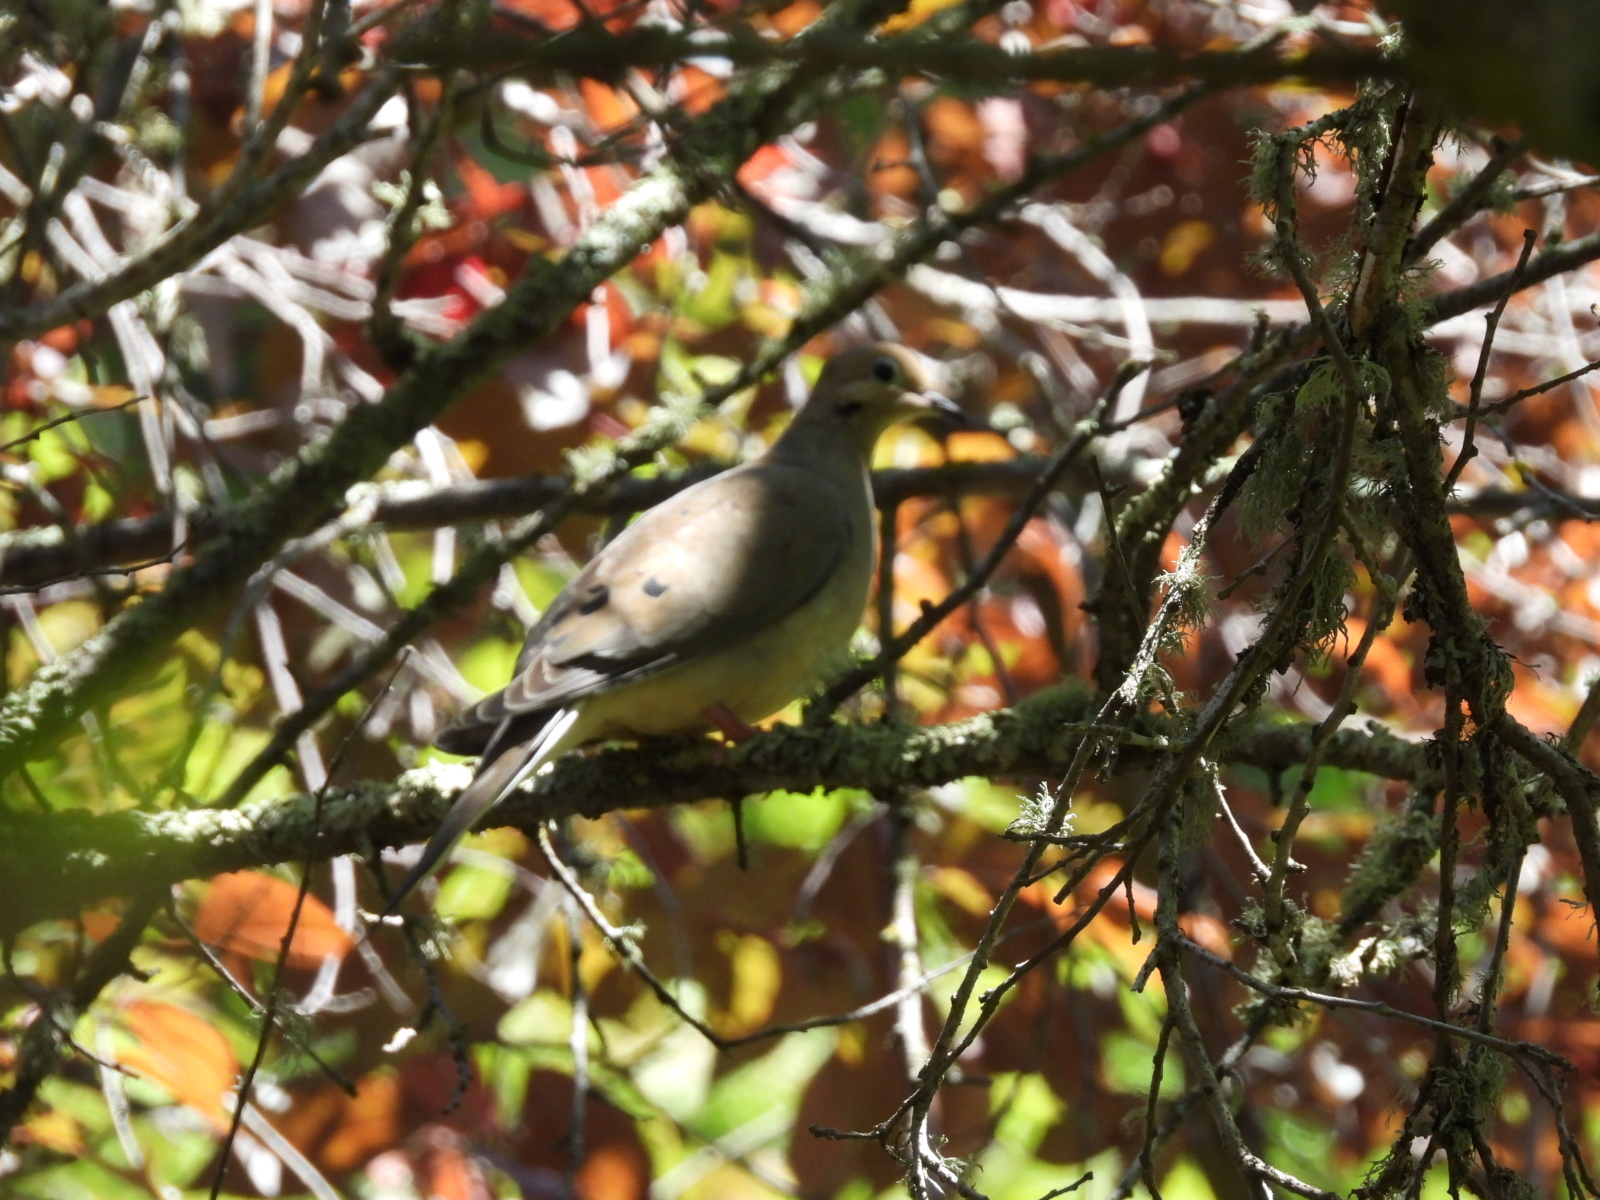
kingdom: Animalia
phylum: Chordata
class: Aves
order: Columbiformes
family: Columbidae
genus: Zenaida
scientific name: Zenaida macroura
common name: Mourning dove
